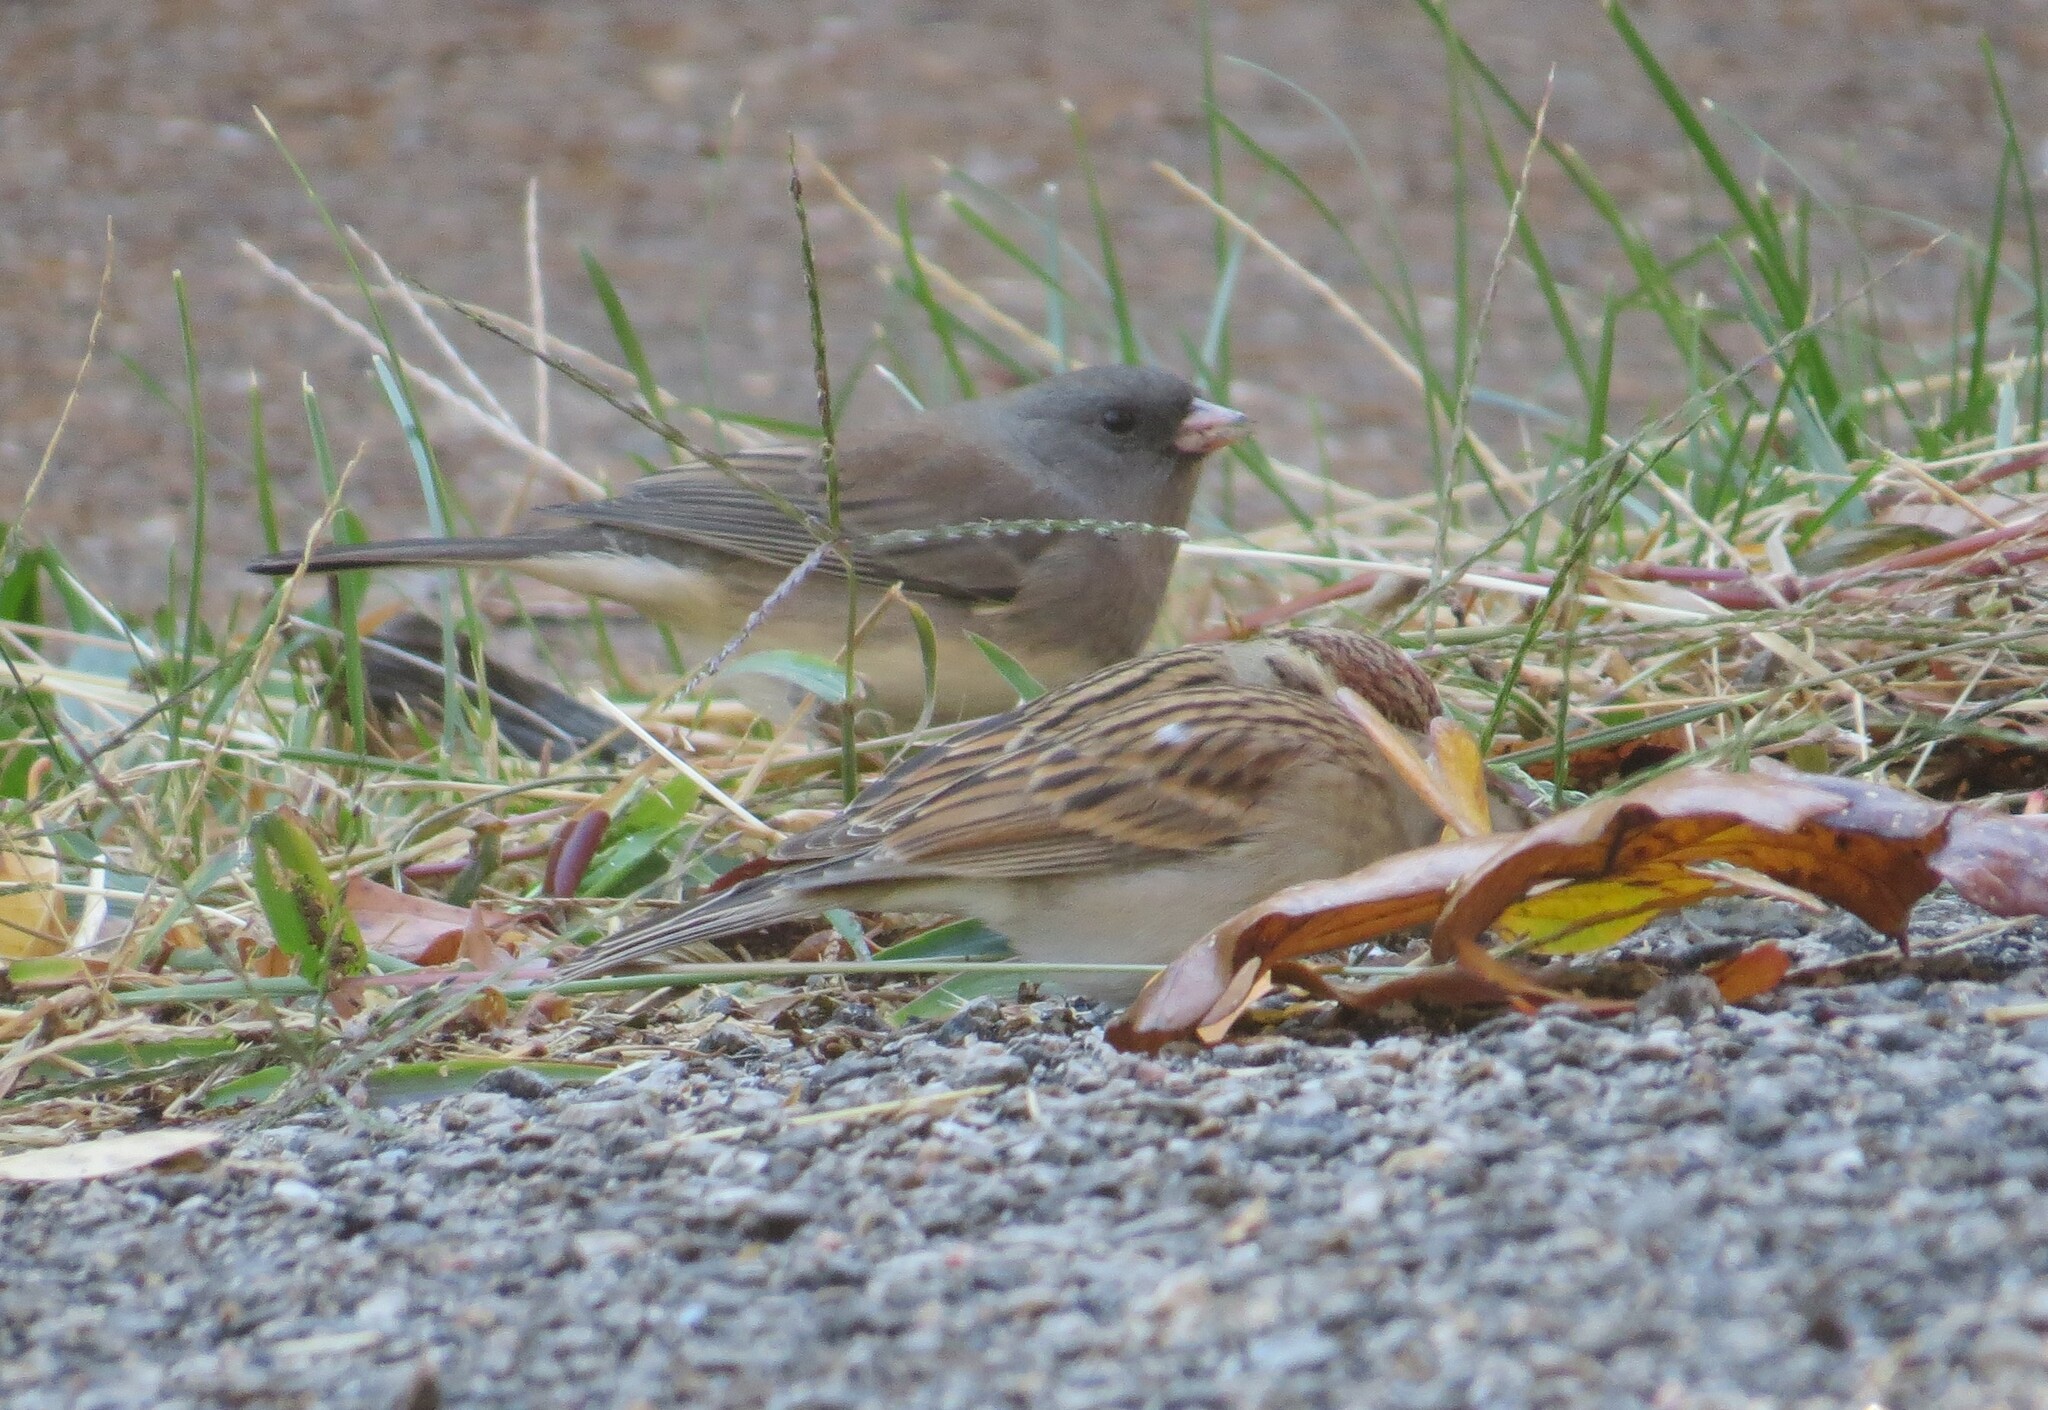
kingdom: Animalia
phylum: Chordata
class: Aves
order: Passeriformes
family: Passerellidae
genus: Junco
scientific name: Junco hyemalis
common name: Dark-eyed junco
